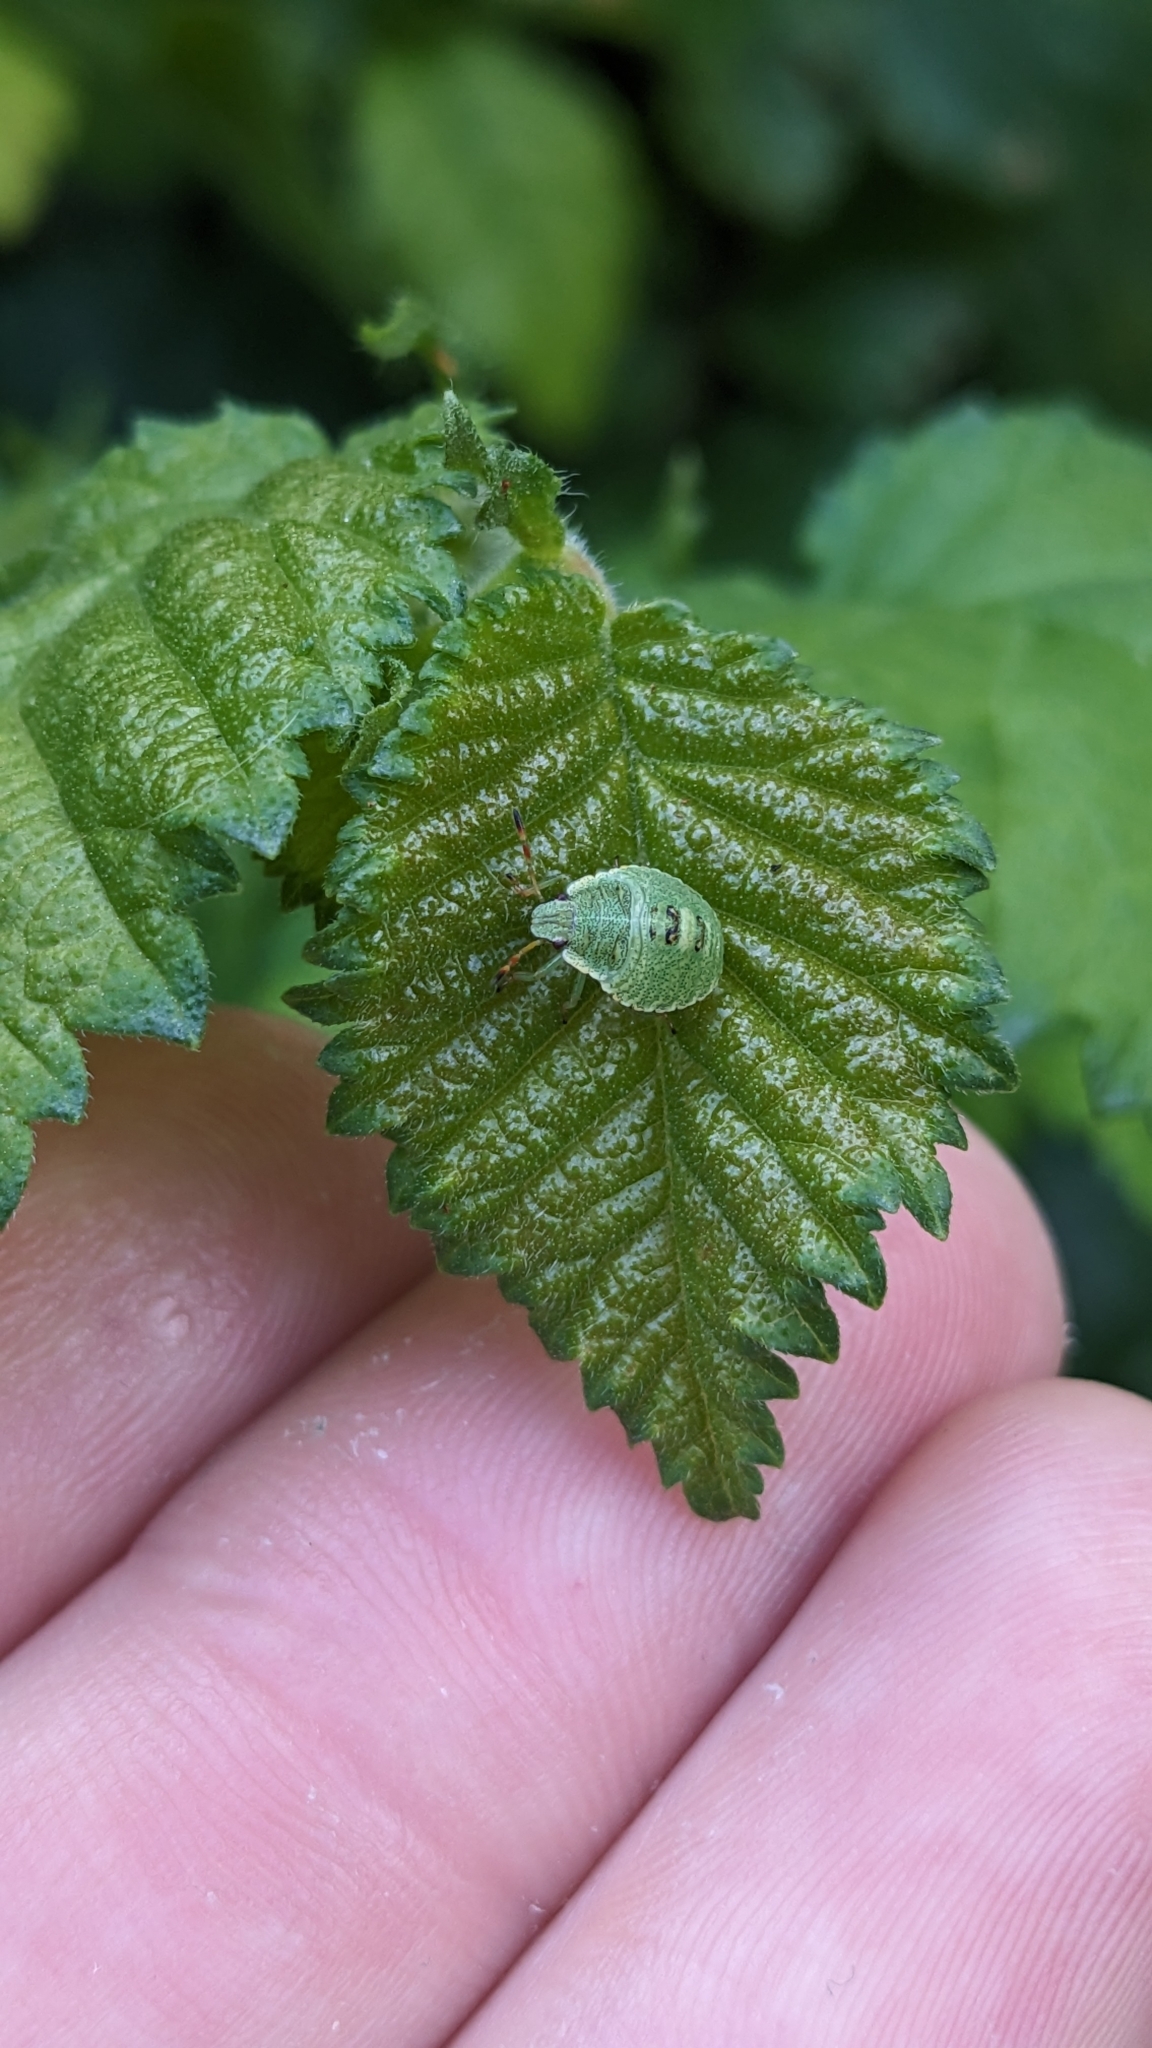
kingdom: Animalia
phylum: Arthropoda
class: Insecta
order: Hemiptera
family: Pentatomidae
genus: Palomena
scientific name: Palomena prasina
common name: Green shieldbug
